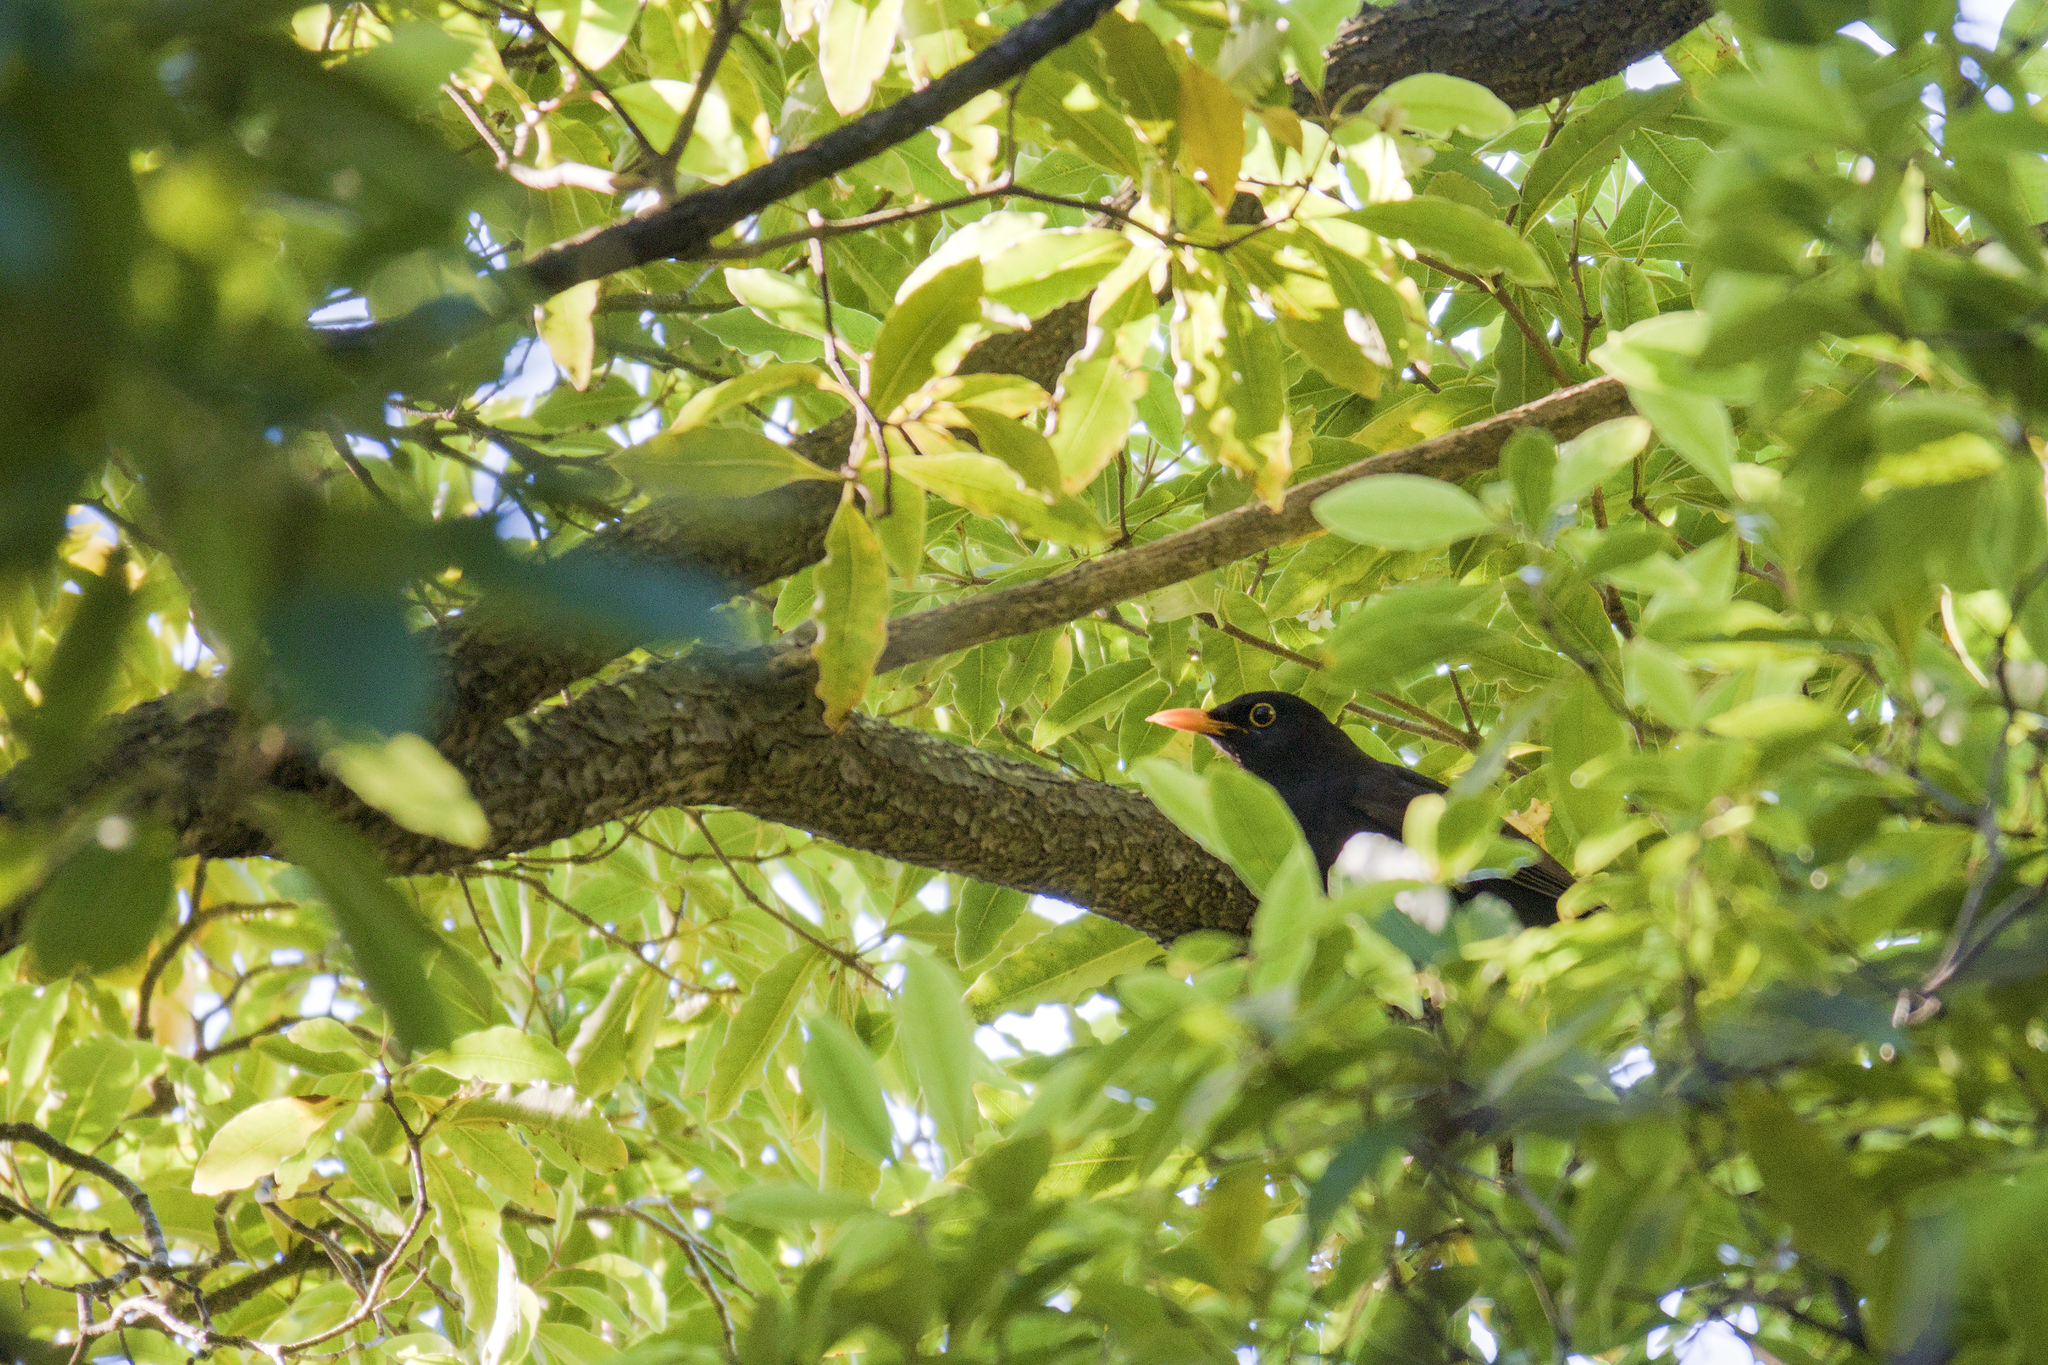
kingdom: Animalia
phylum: Chordata
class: Aves
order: Passeriformes
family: Turdidae
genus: Turdus
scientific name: Turdus merula
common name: Common blackbird
